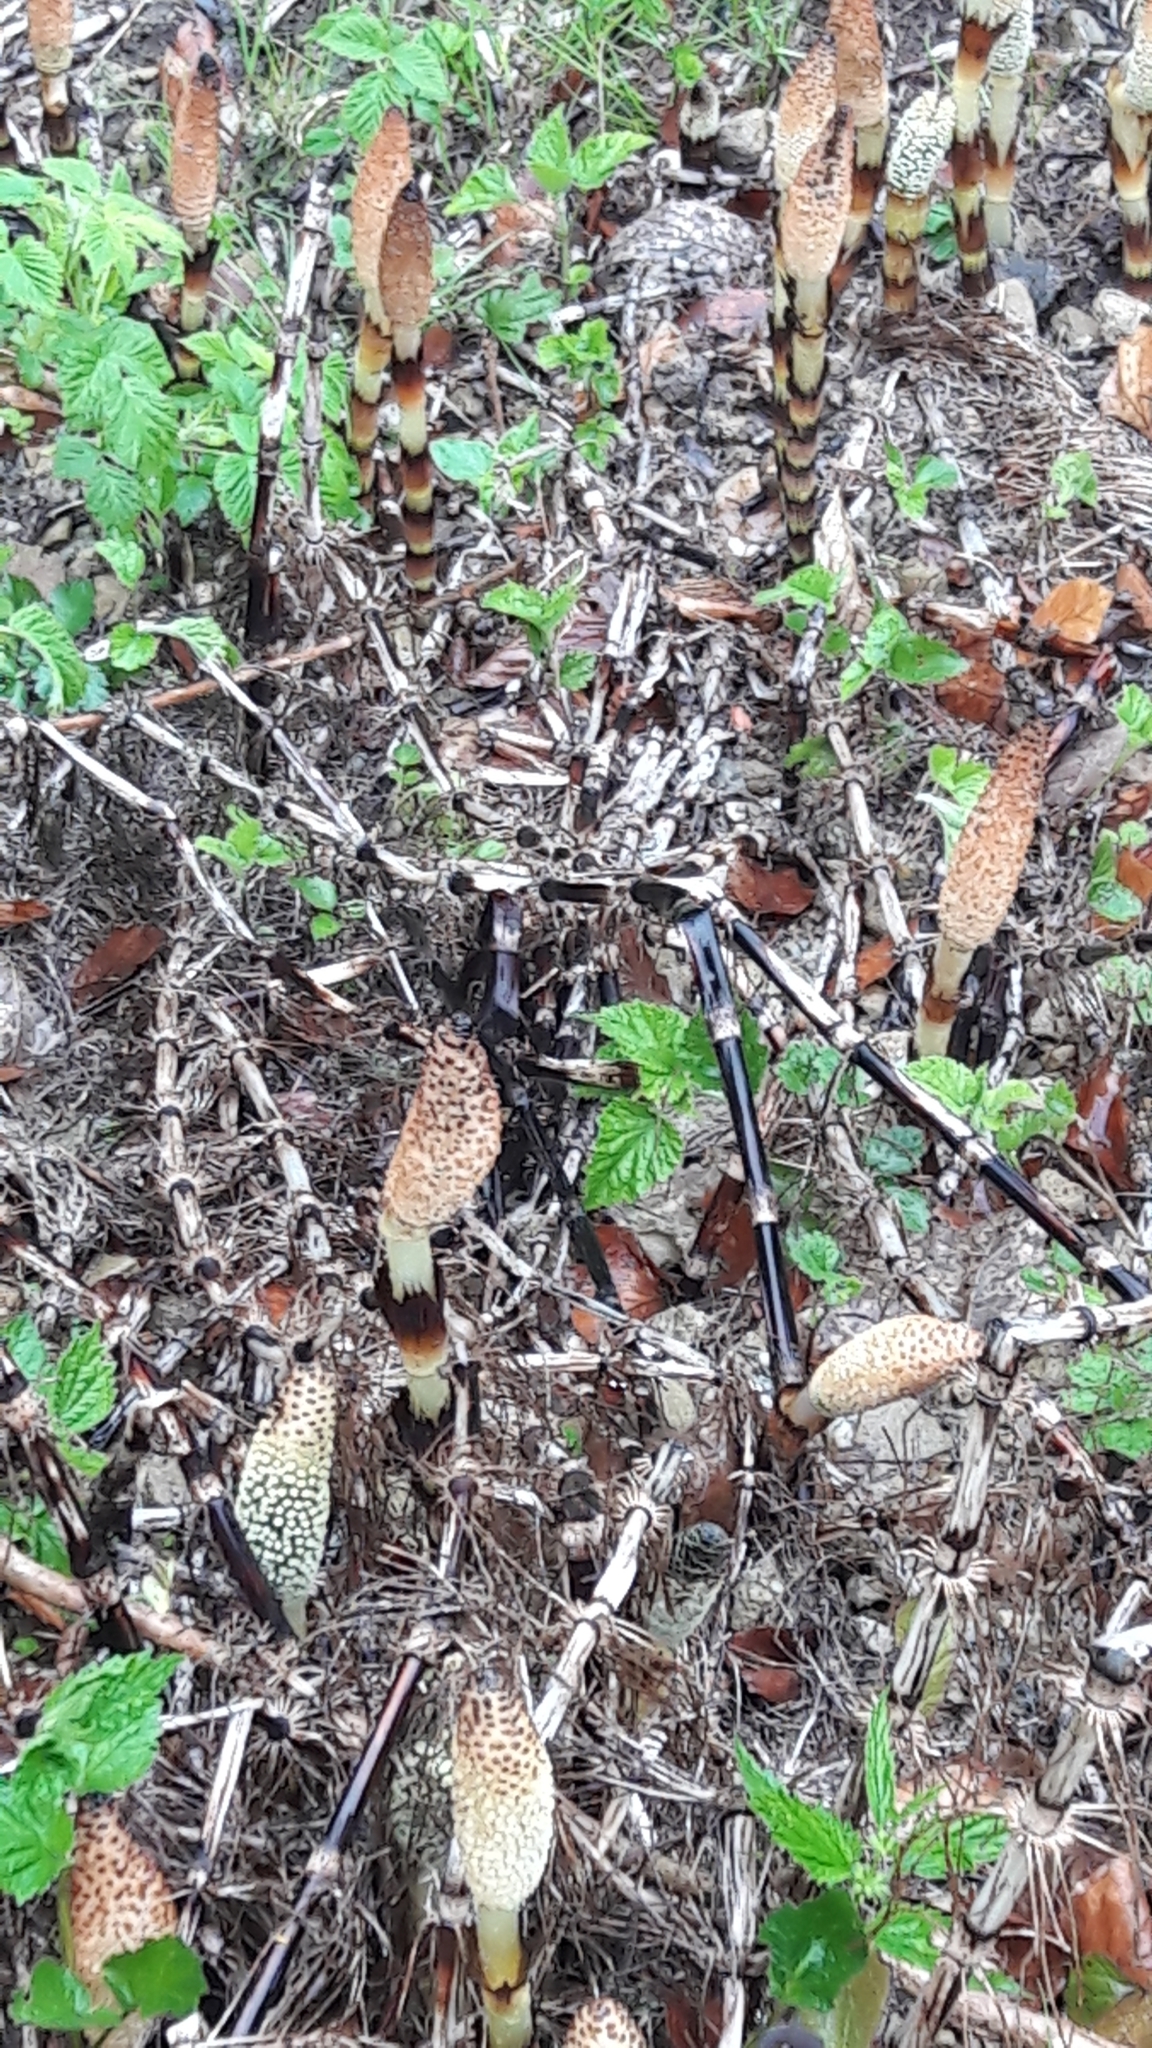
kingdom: Plantae
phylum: Tracheophyta
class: Polypodiopsida
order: Equisetales
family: Equisetaceae
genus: Equisetum
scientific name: Equisetum telmateia
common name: Great horsetail
